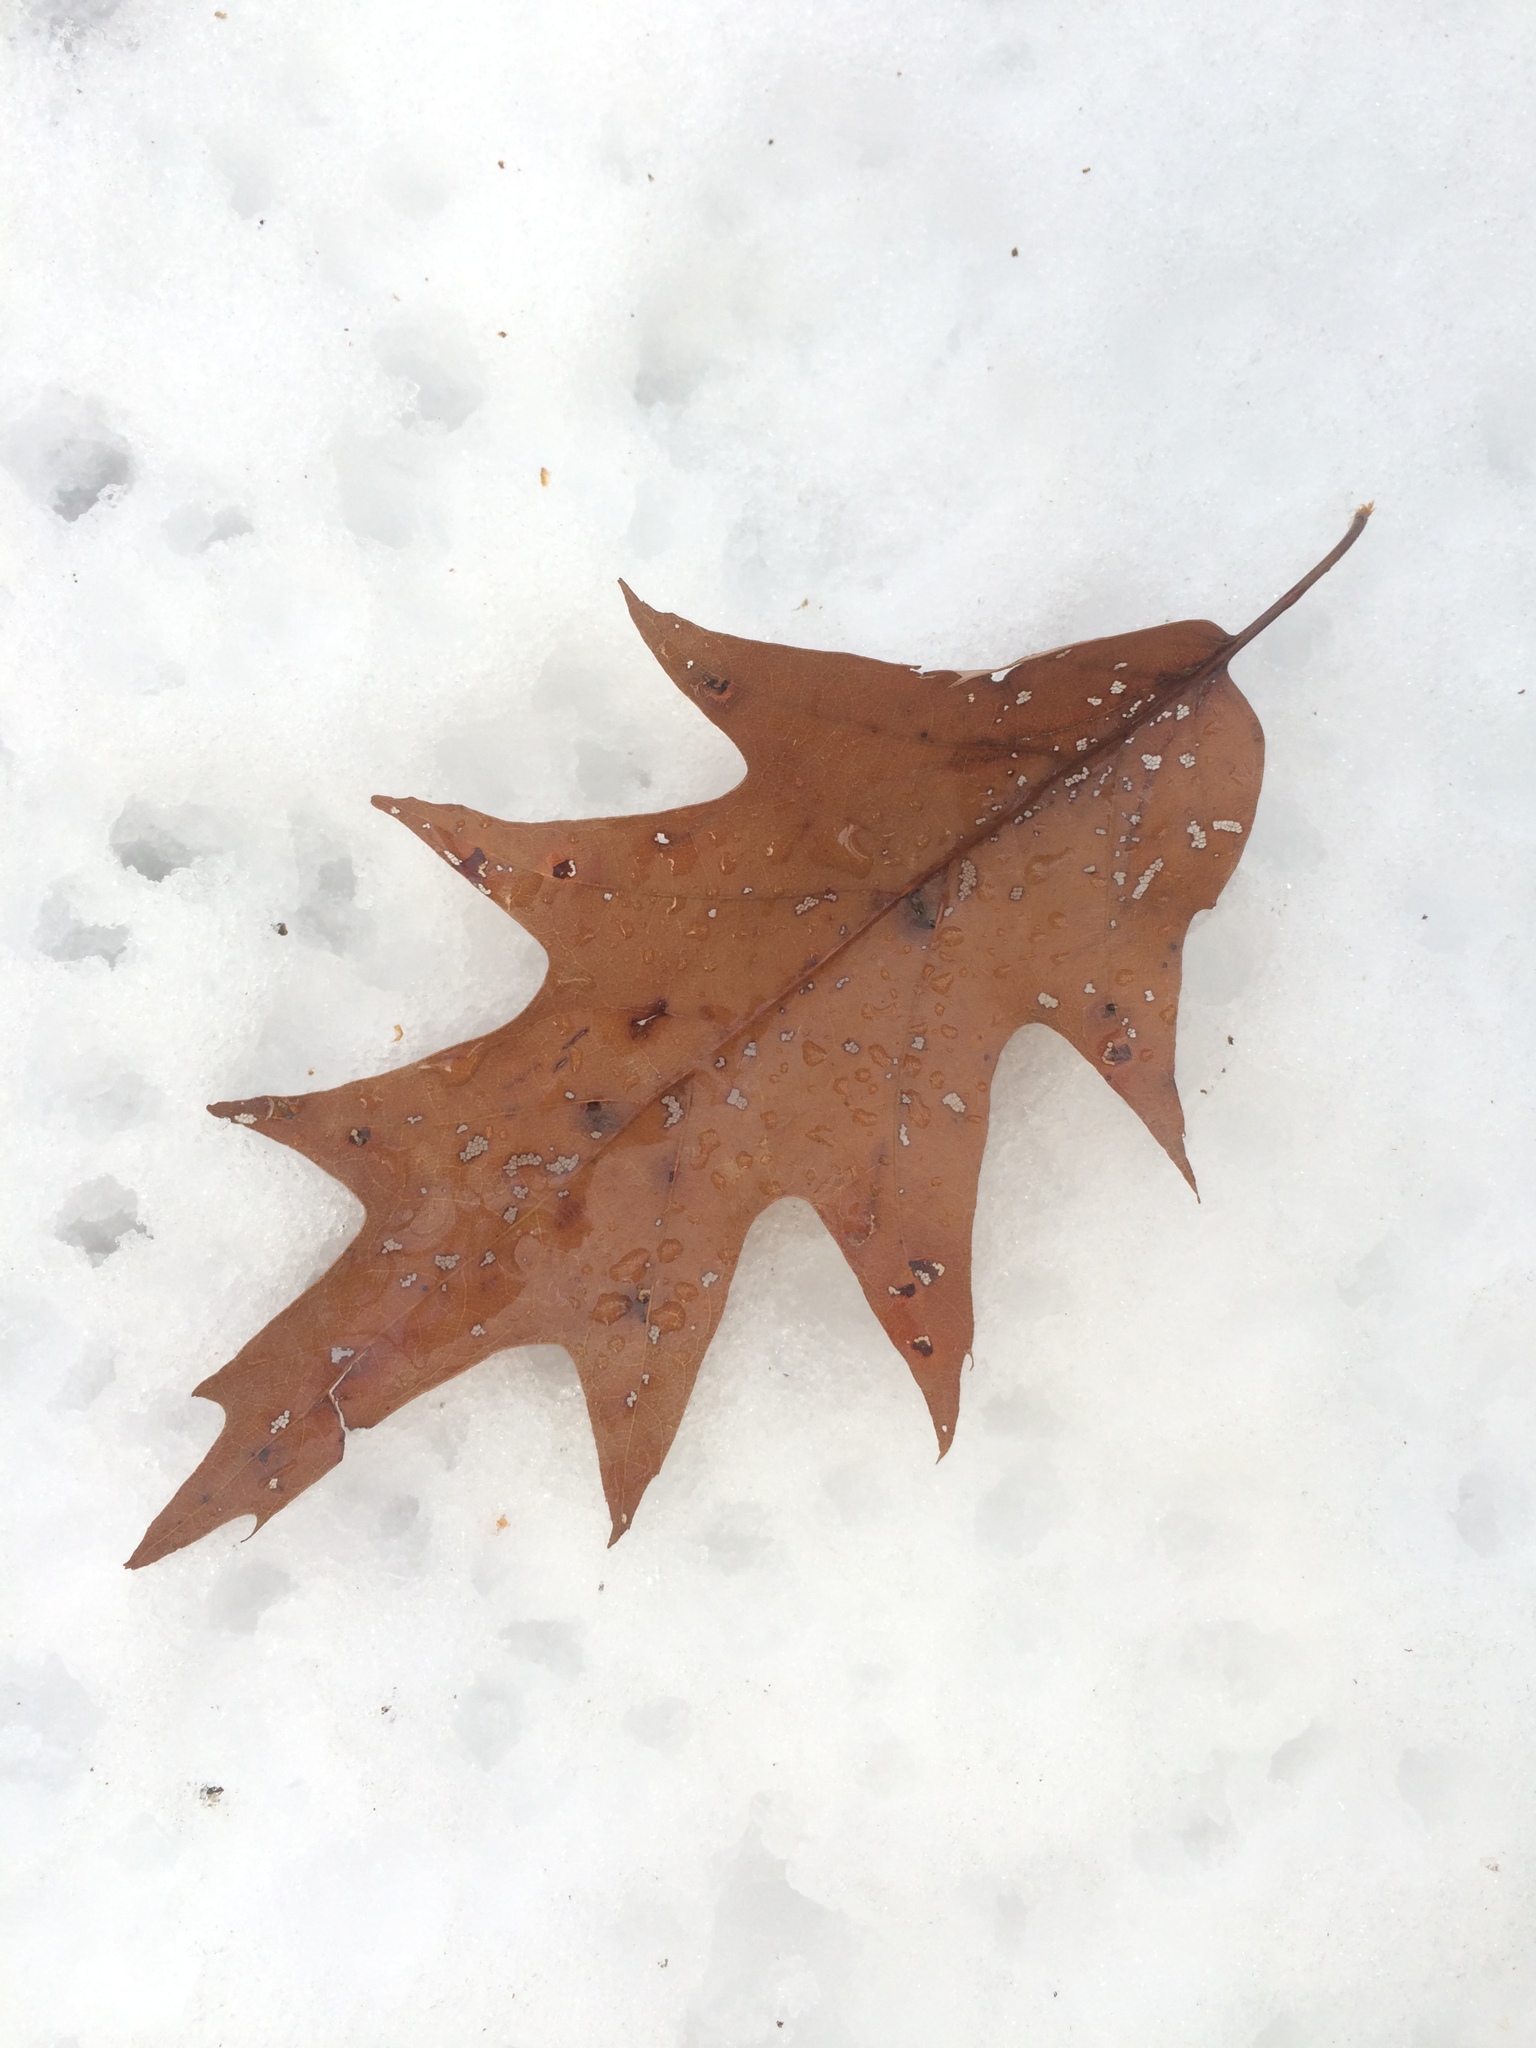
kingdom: Plantae
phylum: Tracheophyta
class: Magnoliopsida
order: Fagales
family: Fagaceae
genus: Quercus
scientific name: Quercus rubra
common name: Red oak
